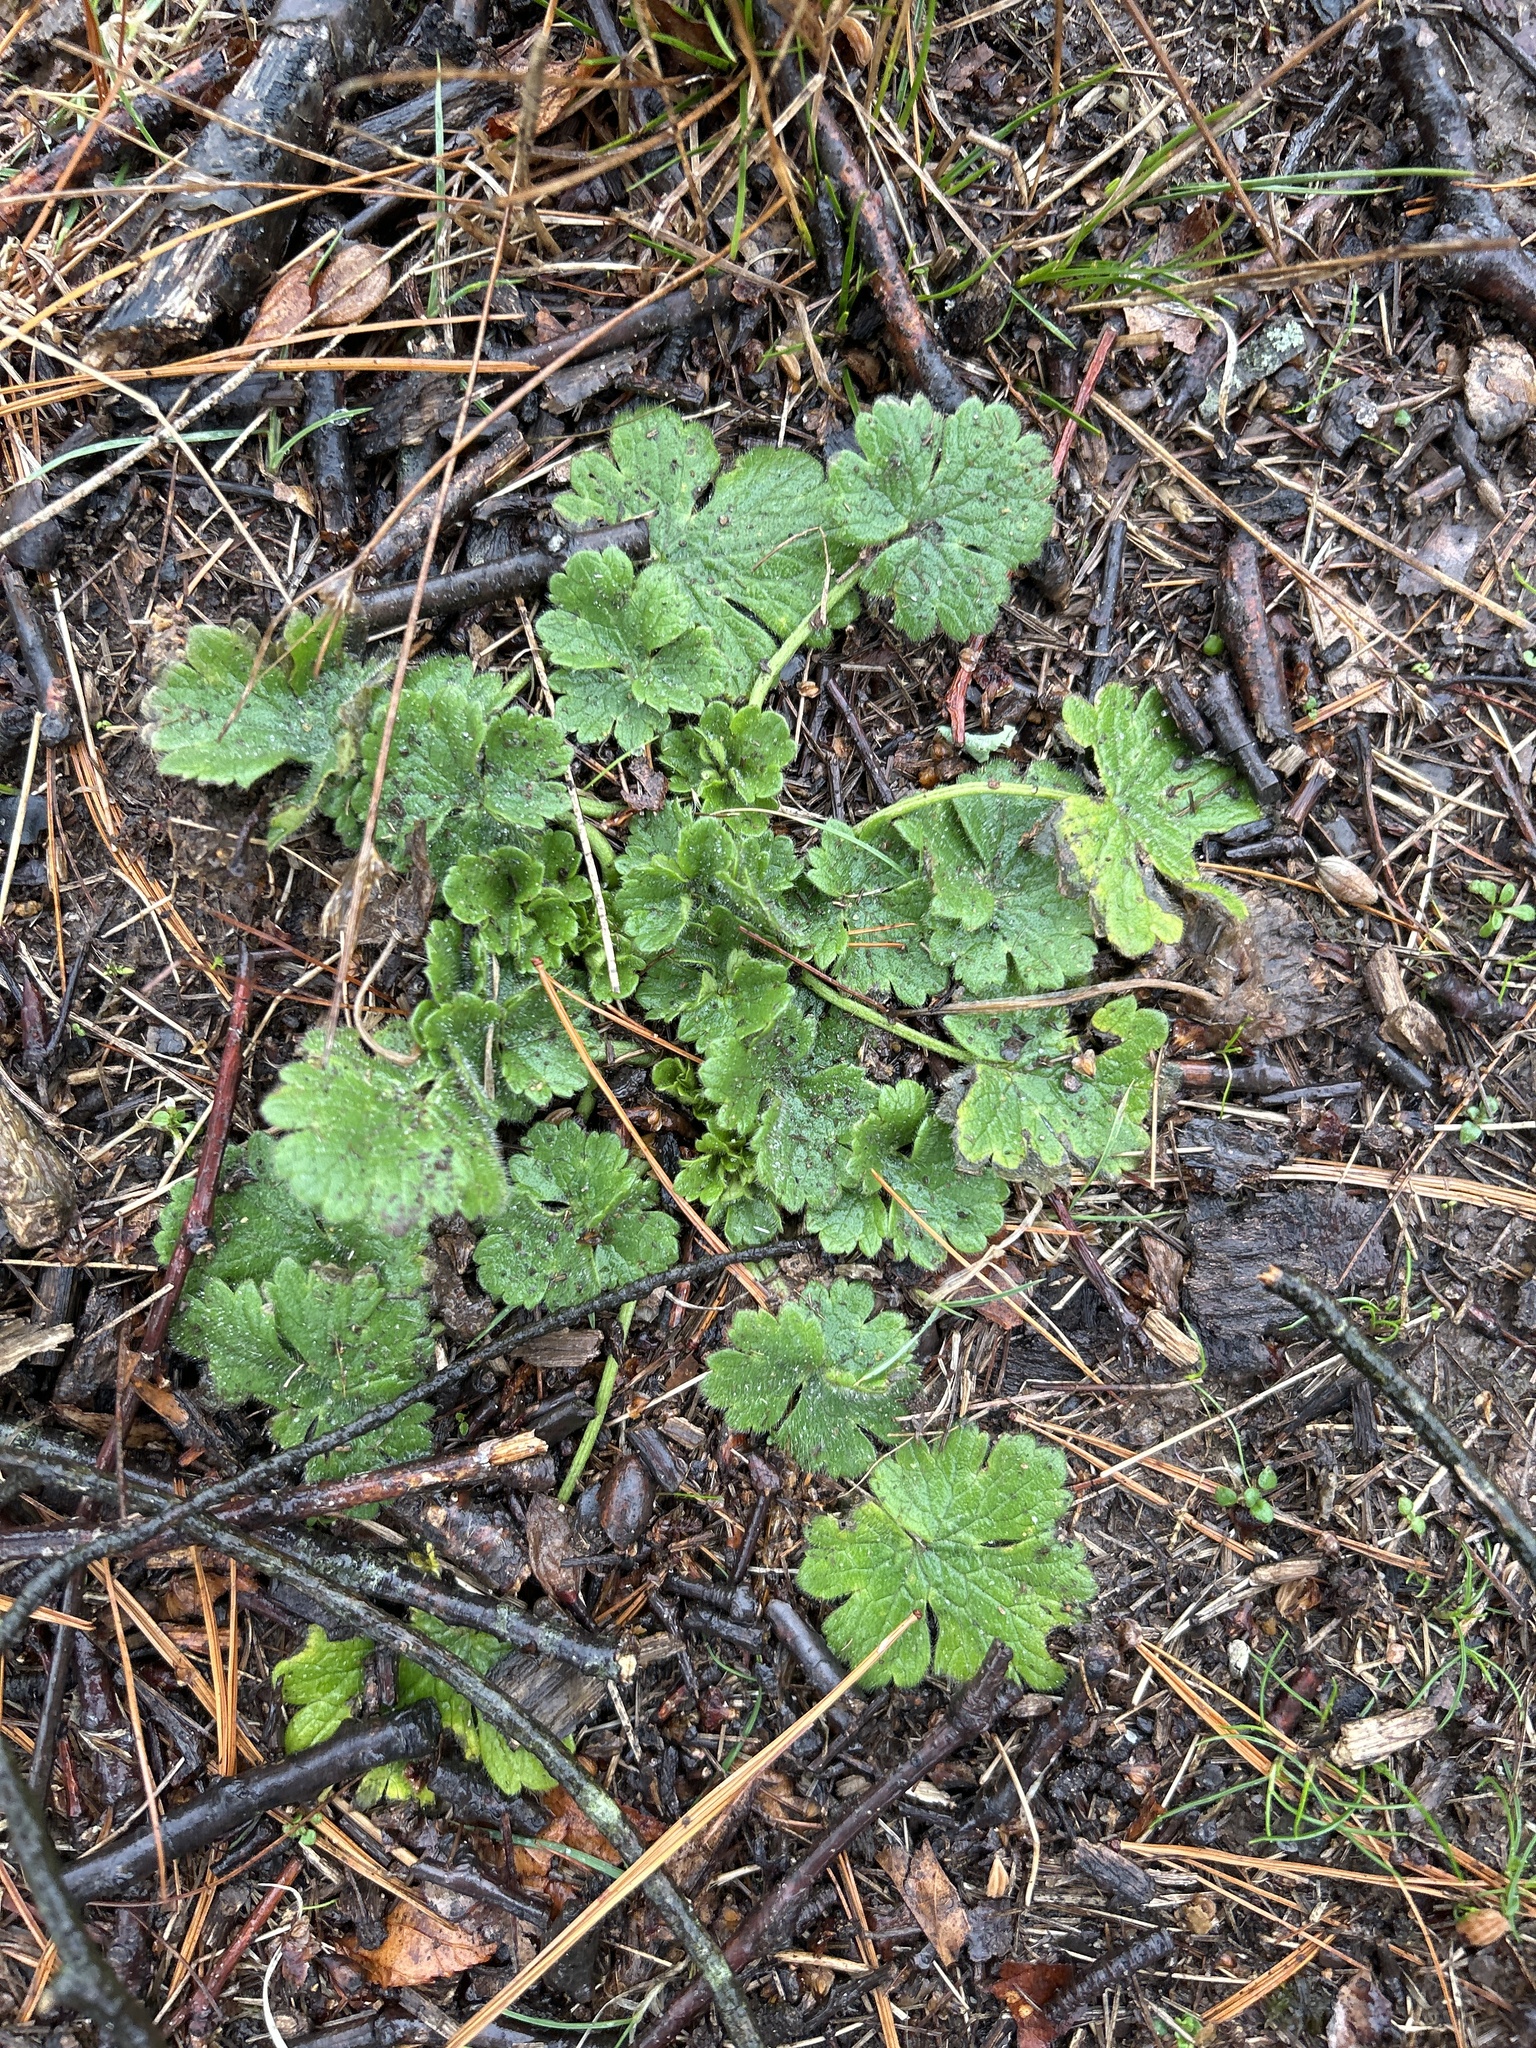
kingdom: Plantae
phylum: Tracheophyta
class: Magnoliopsida
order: Ranunculales
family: Ranunculaceae
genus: Ranunculus
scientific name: Ranunculus bulbosus
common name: Bulbous buttercup
